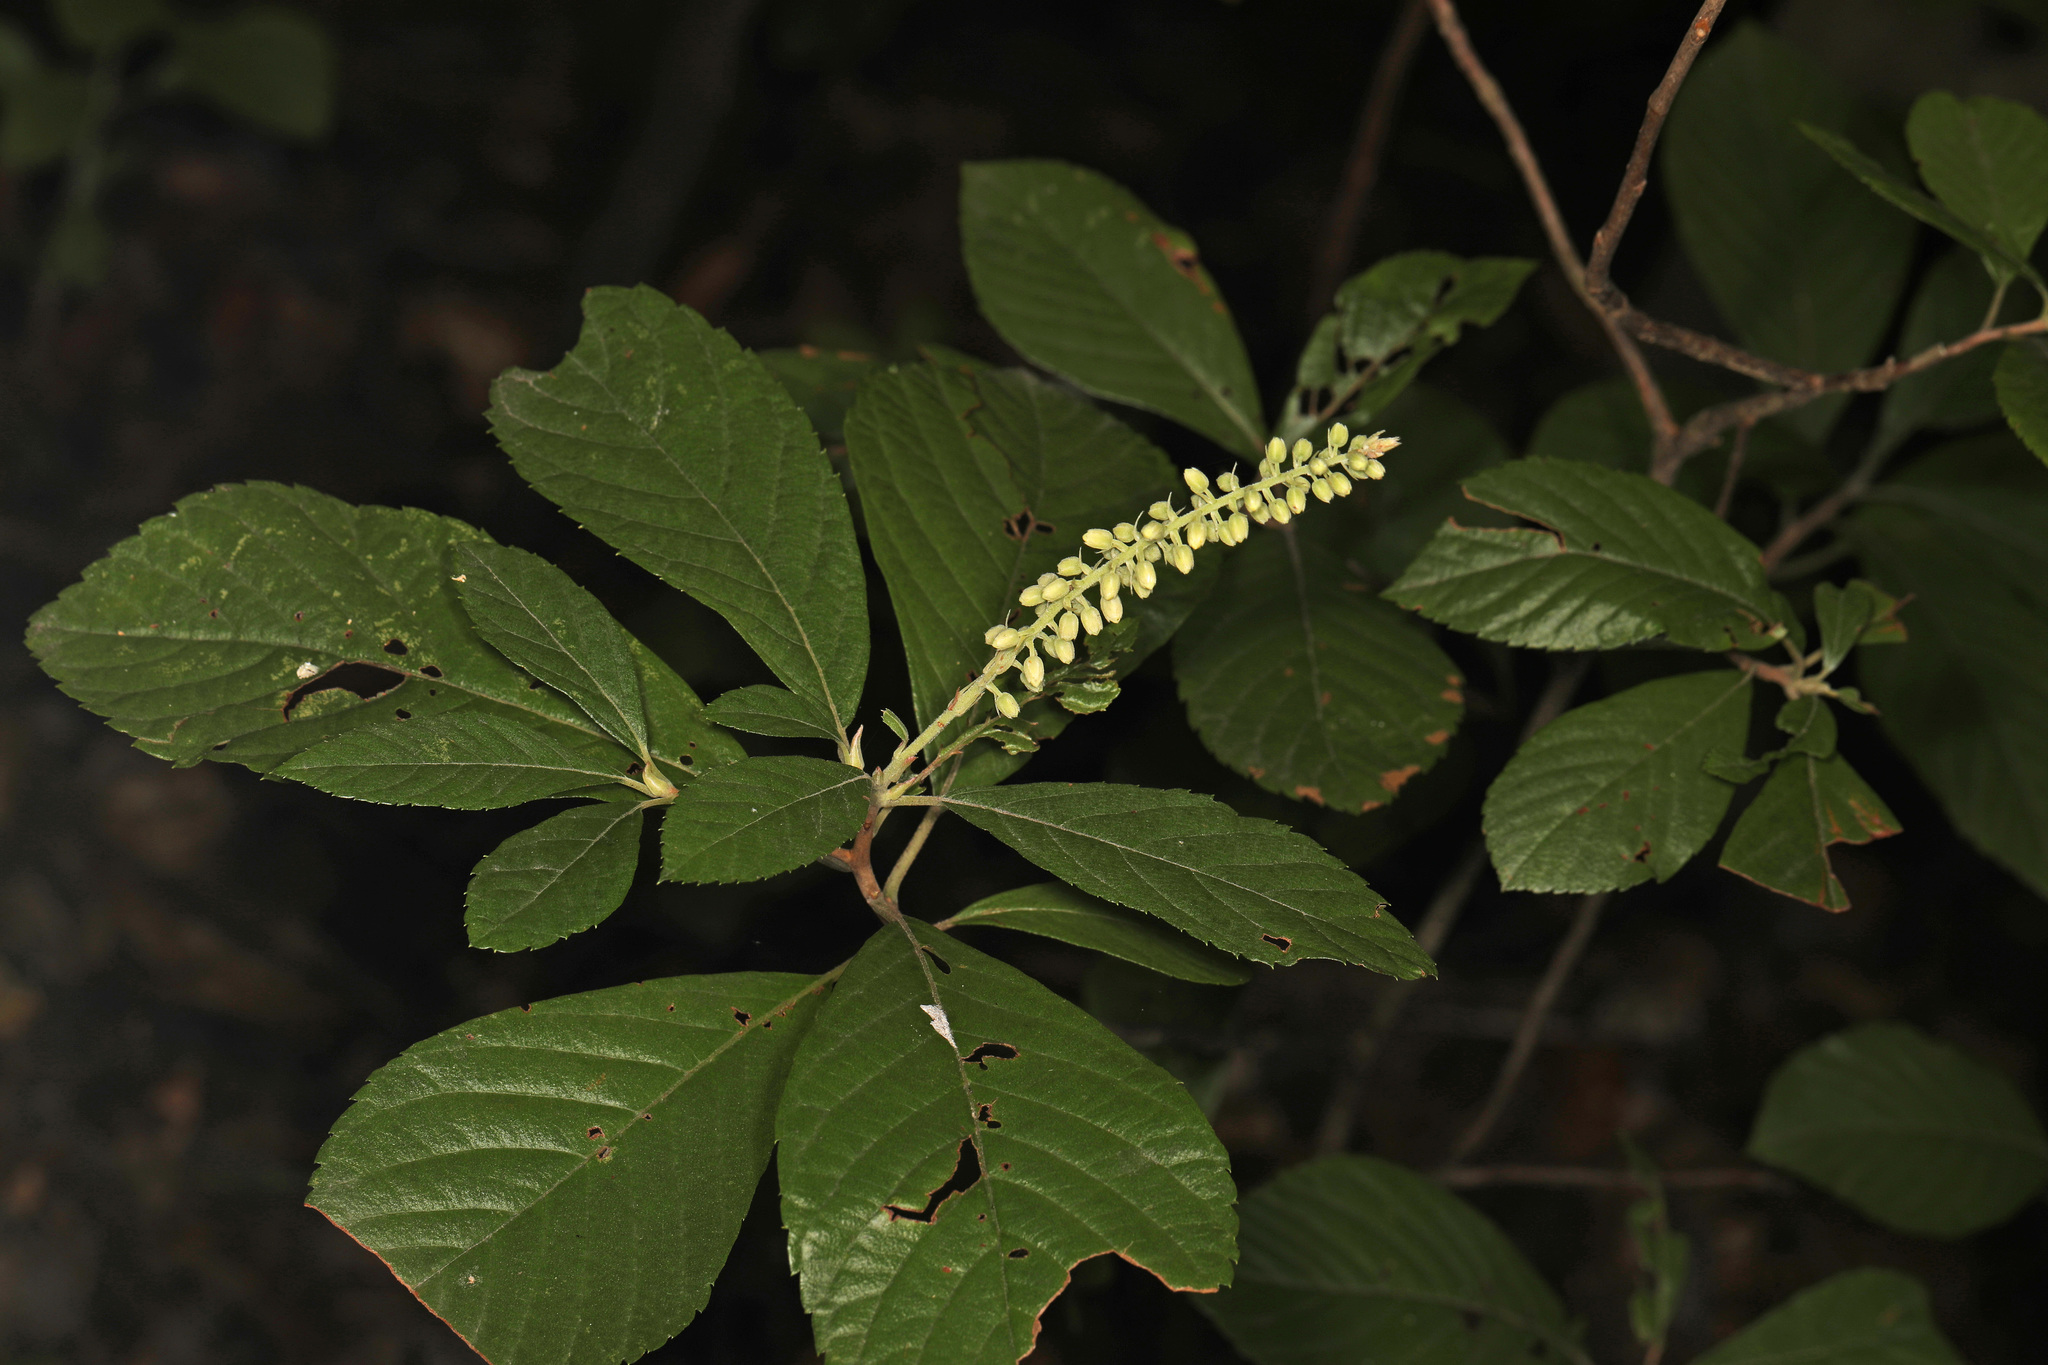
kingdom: Plantae
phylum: Tracheophyta
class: Magnoliopsida
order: Ericales
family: Clethraceae
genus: Clethra
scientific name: Clethra alnifolia
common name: Sweet pepperbush
